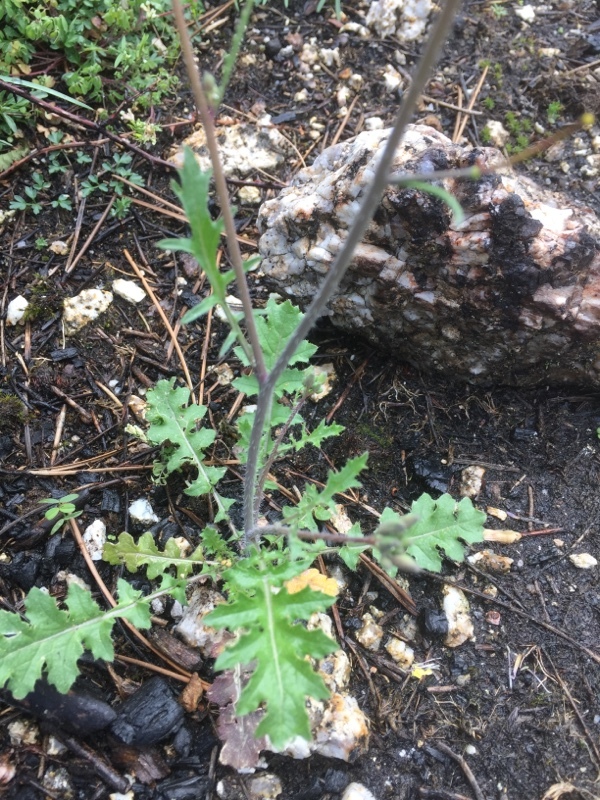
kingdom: Plantae
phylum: Tracheophyta
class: Magnoliopsida
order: Brassicales
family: Brassicaceae
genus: Coincya
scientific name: Coincya monensis
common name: Star-mustard
